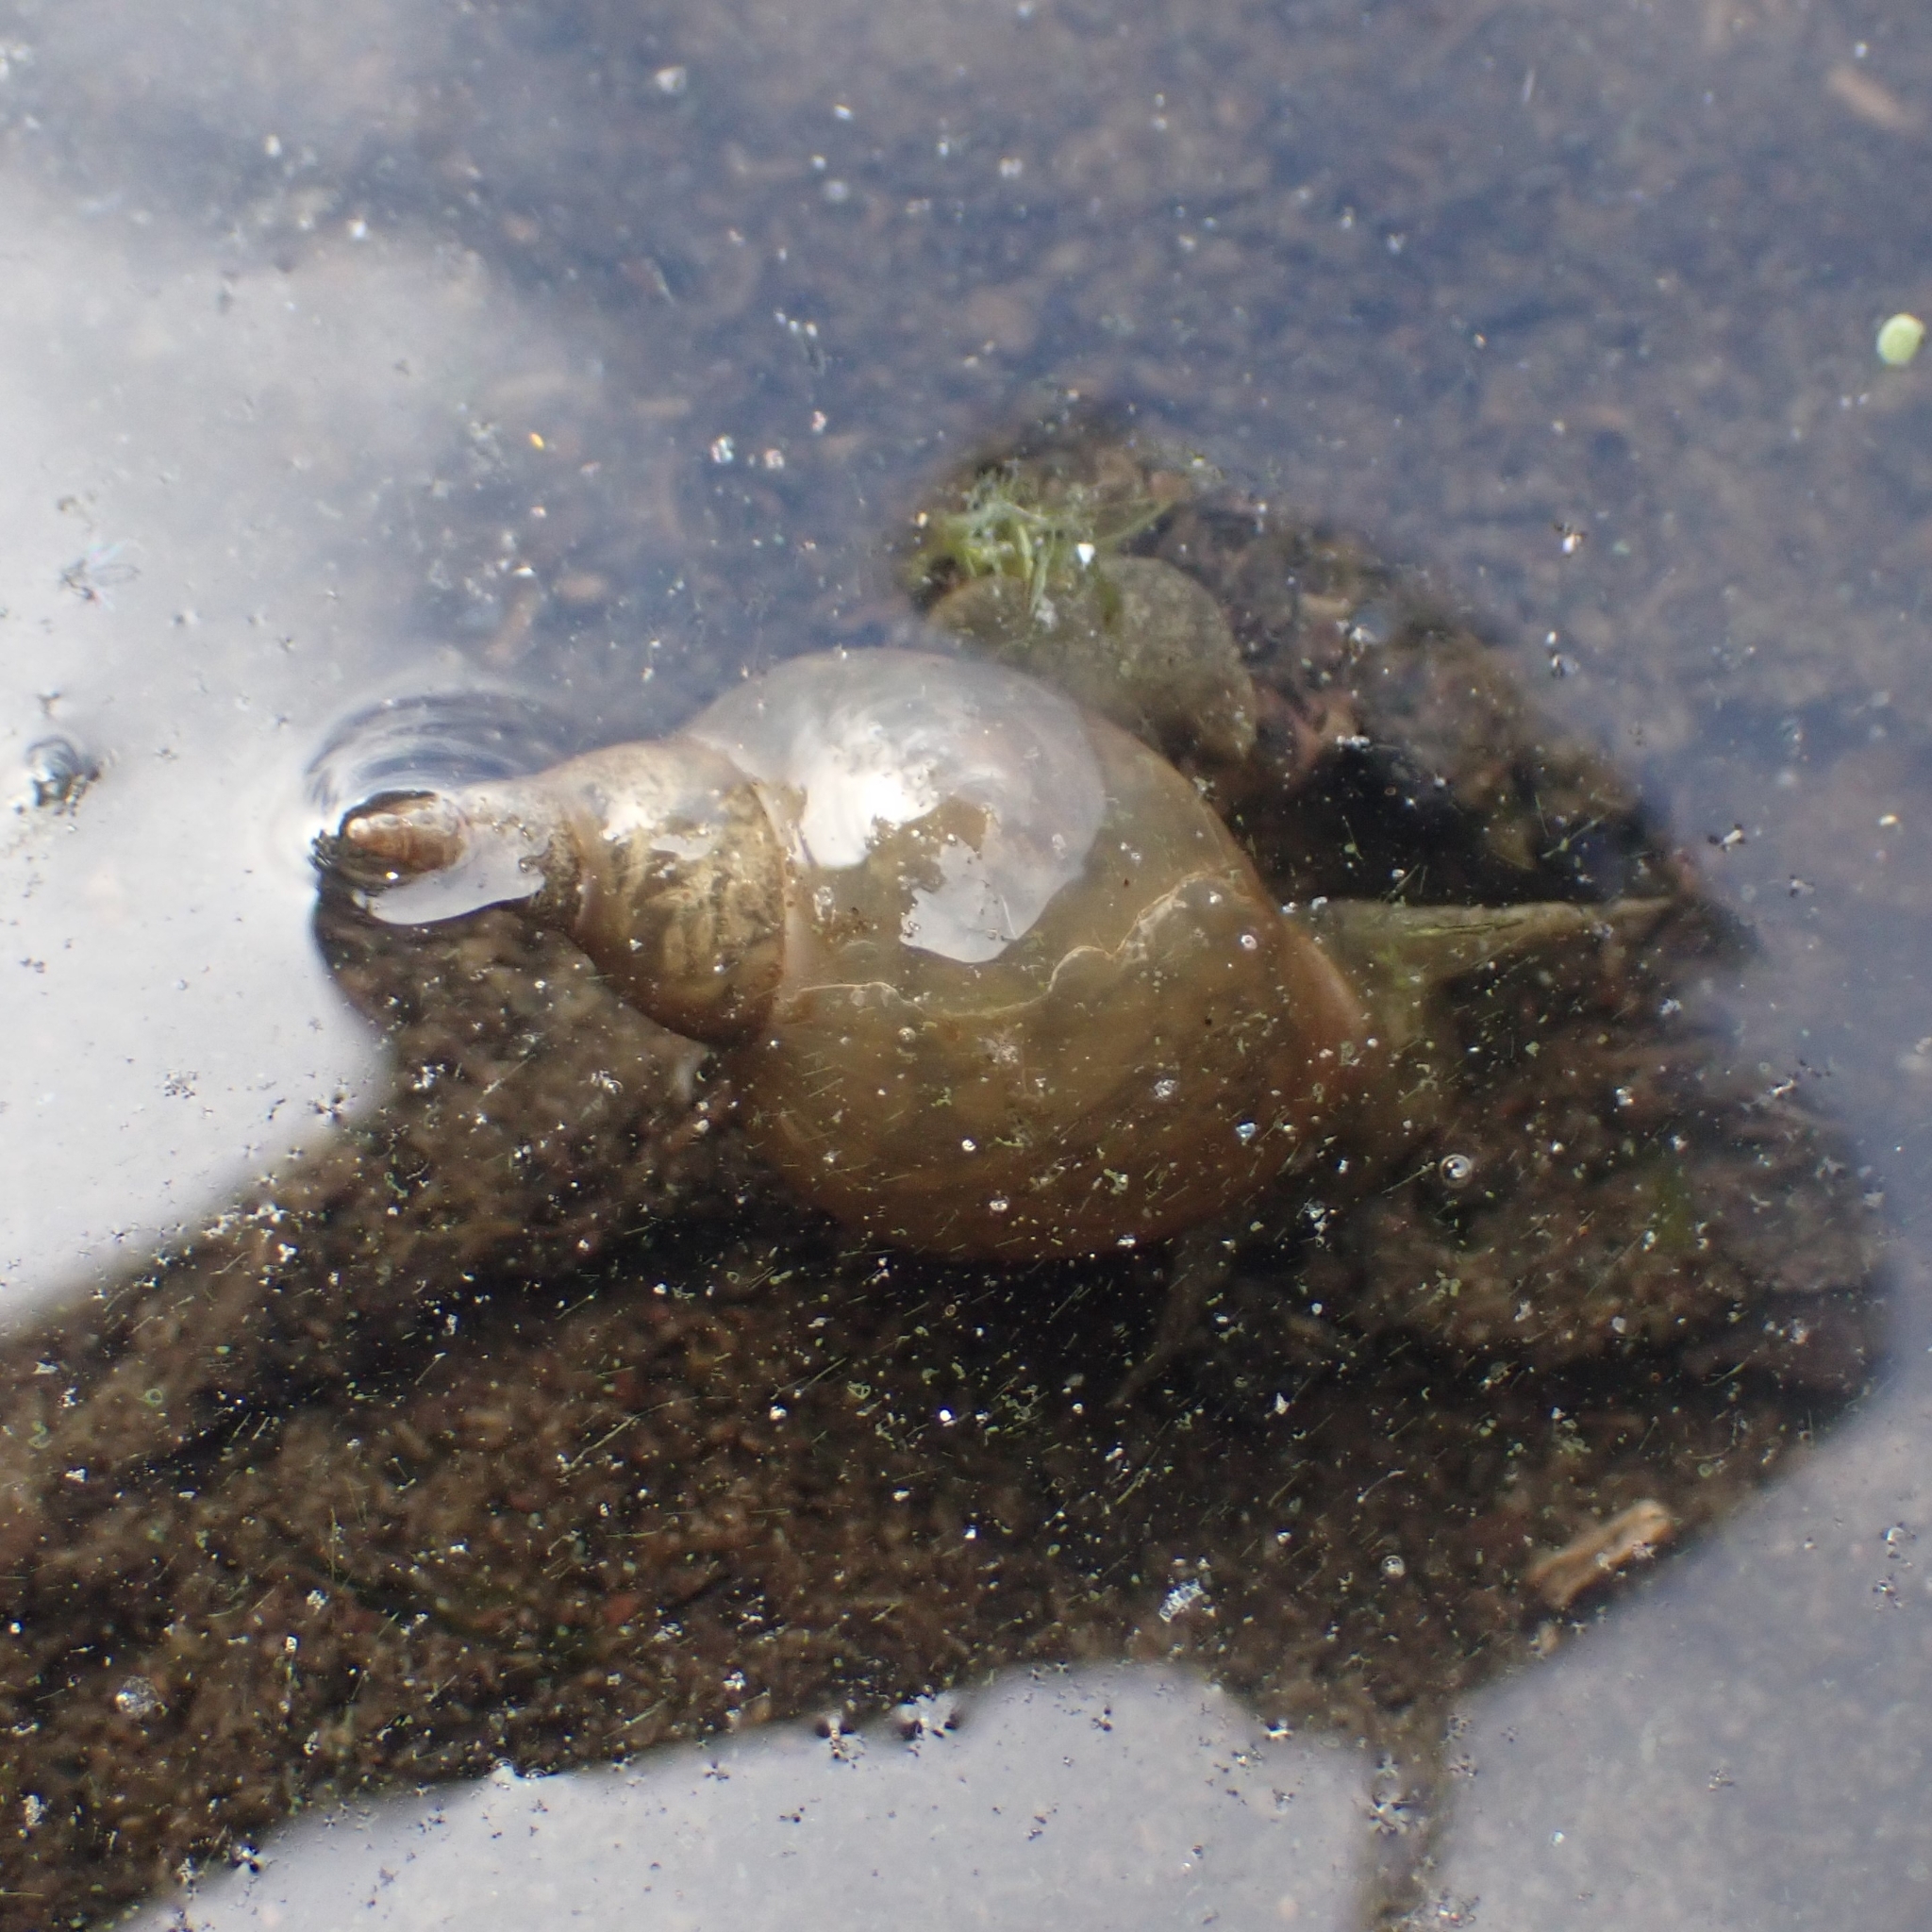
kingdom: Animalia
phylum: Mollusca
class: Gastropoda
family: Lymnaeidae
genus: Lymnaea
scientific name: Lymnaea stagnalis
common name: Great pond snail
